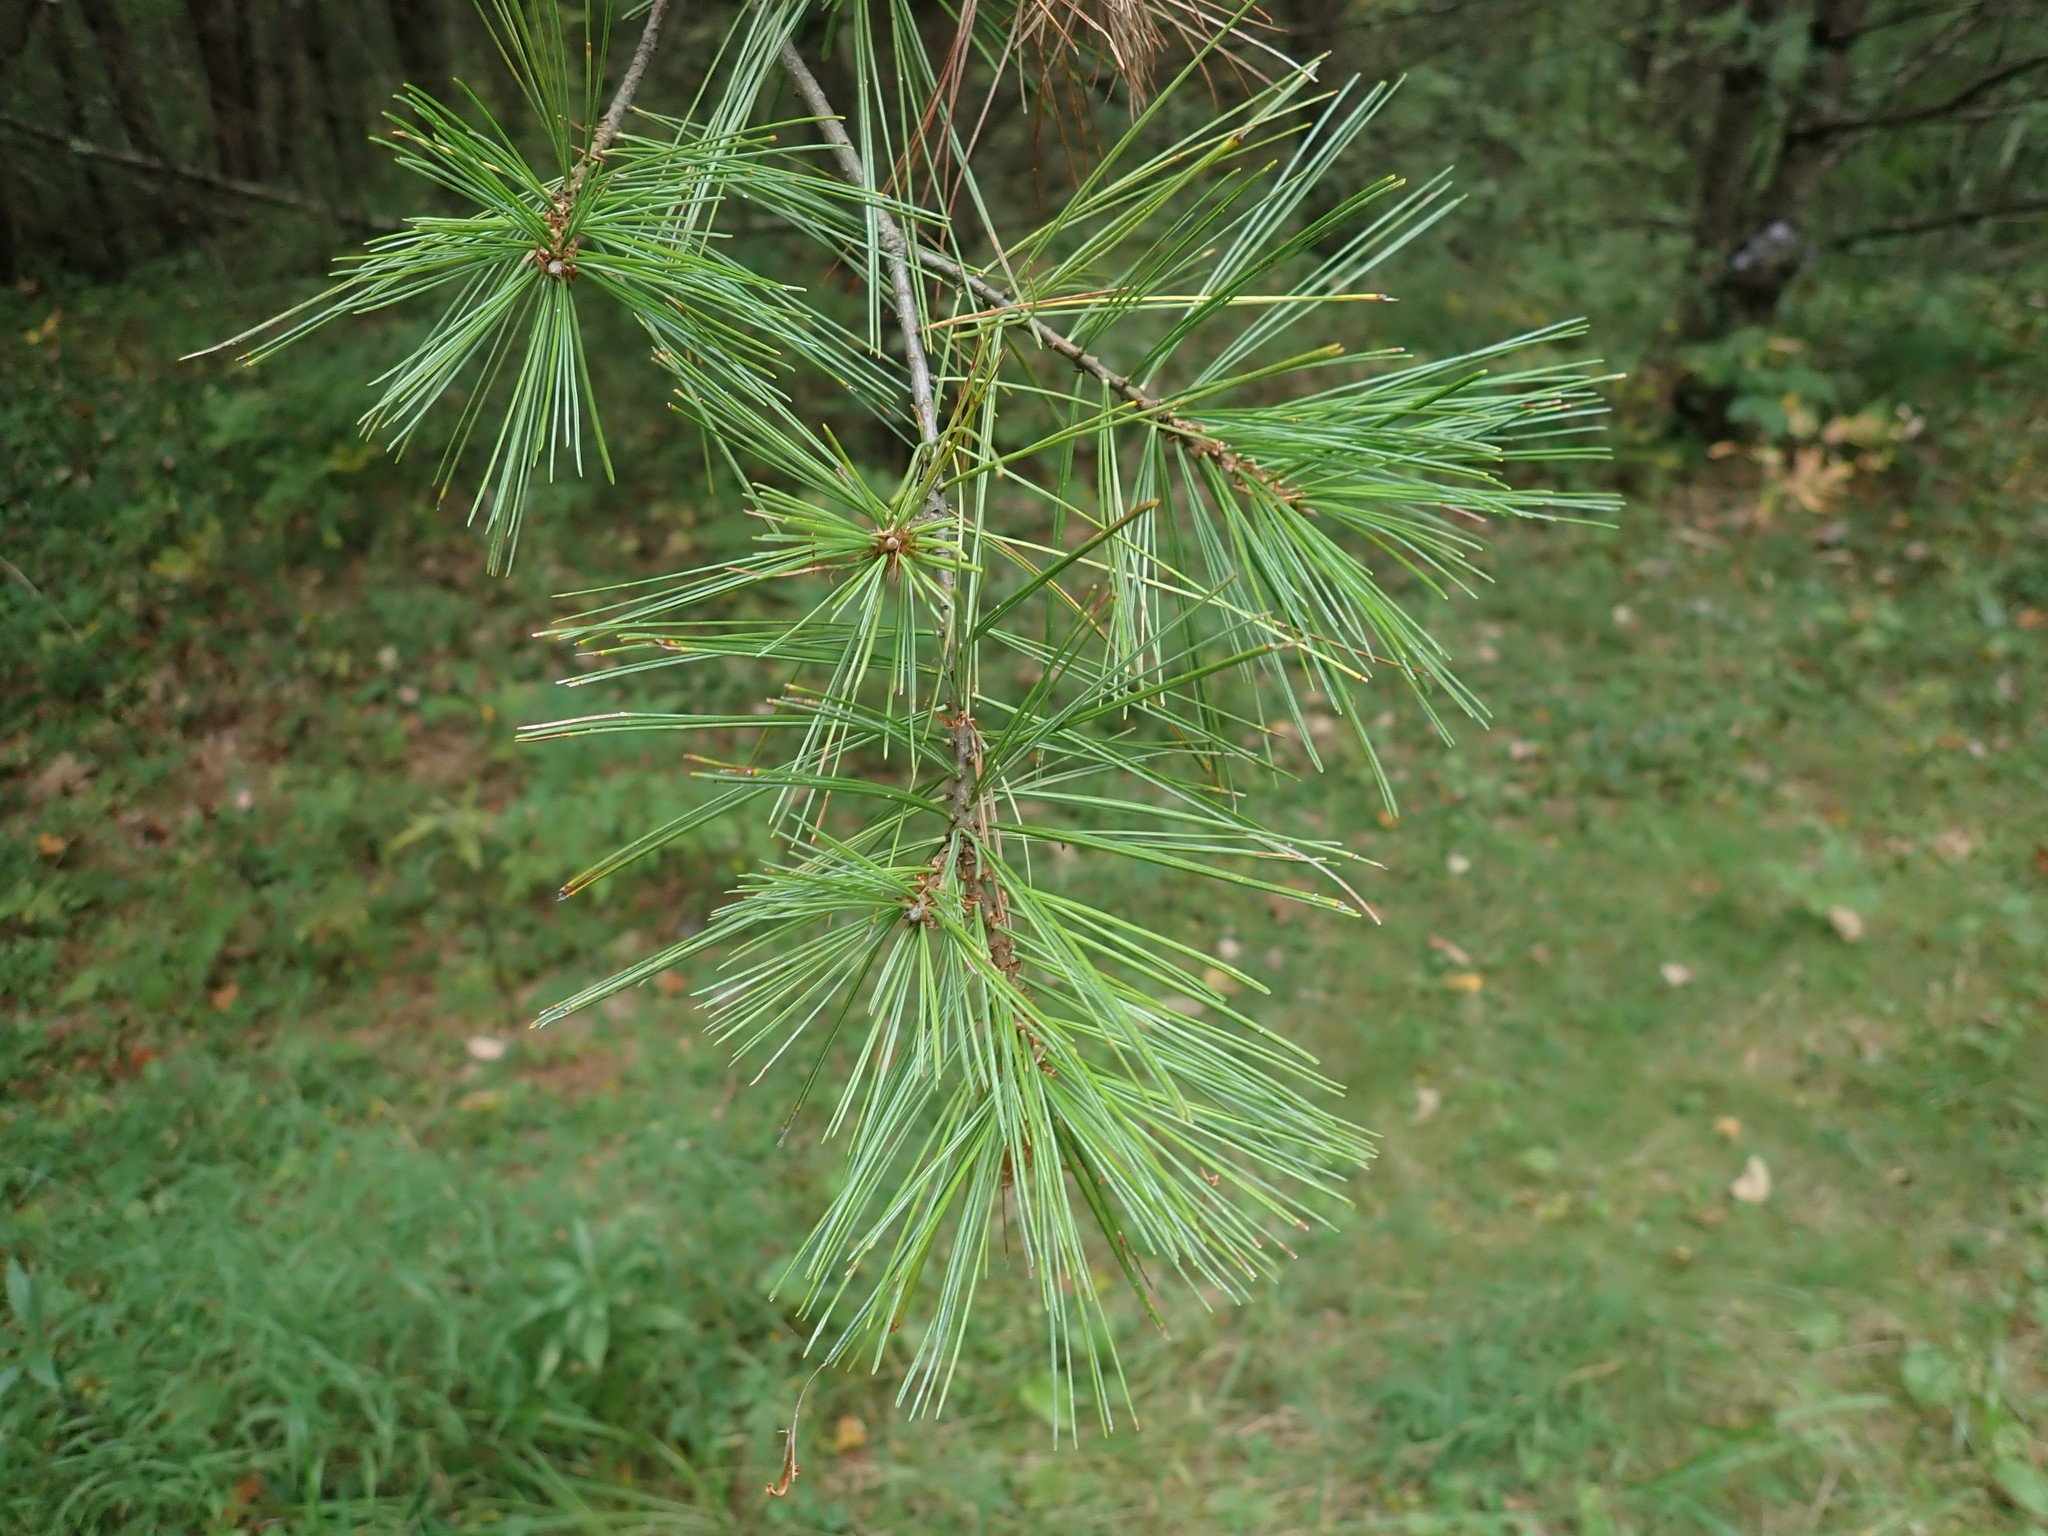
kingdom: Plantae
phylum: Tracheophyta
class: Pinopsida
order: Pinales
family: Pinaceae
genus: Pinus
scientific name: Pinus strobus
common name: Weymouth pine
